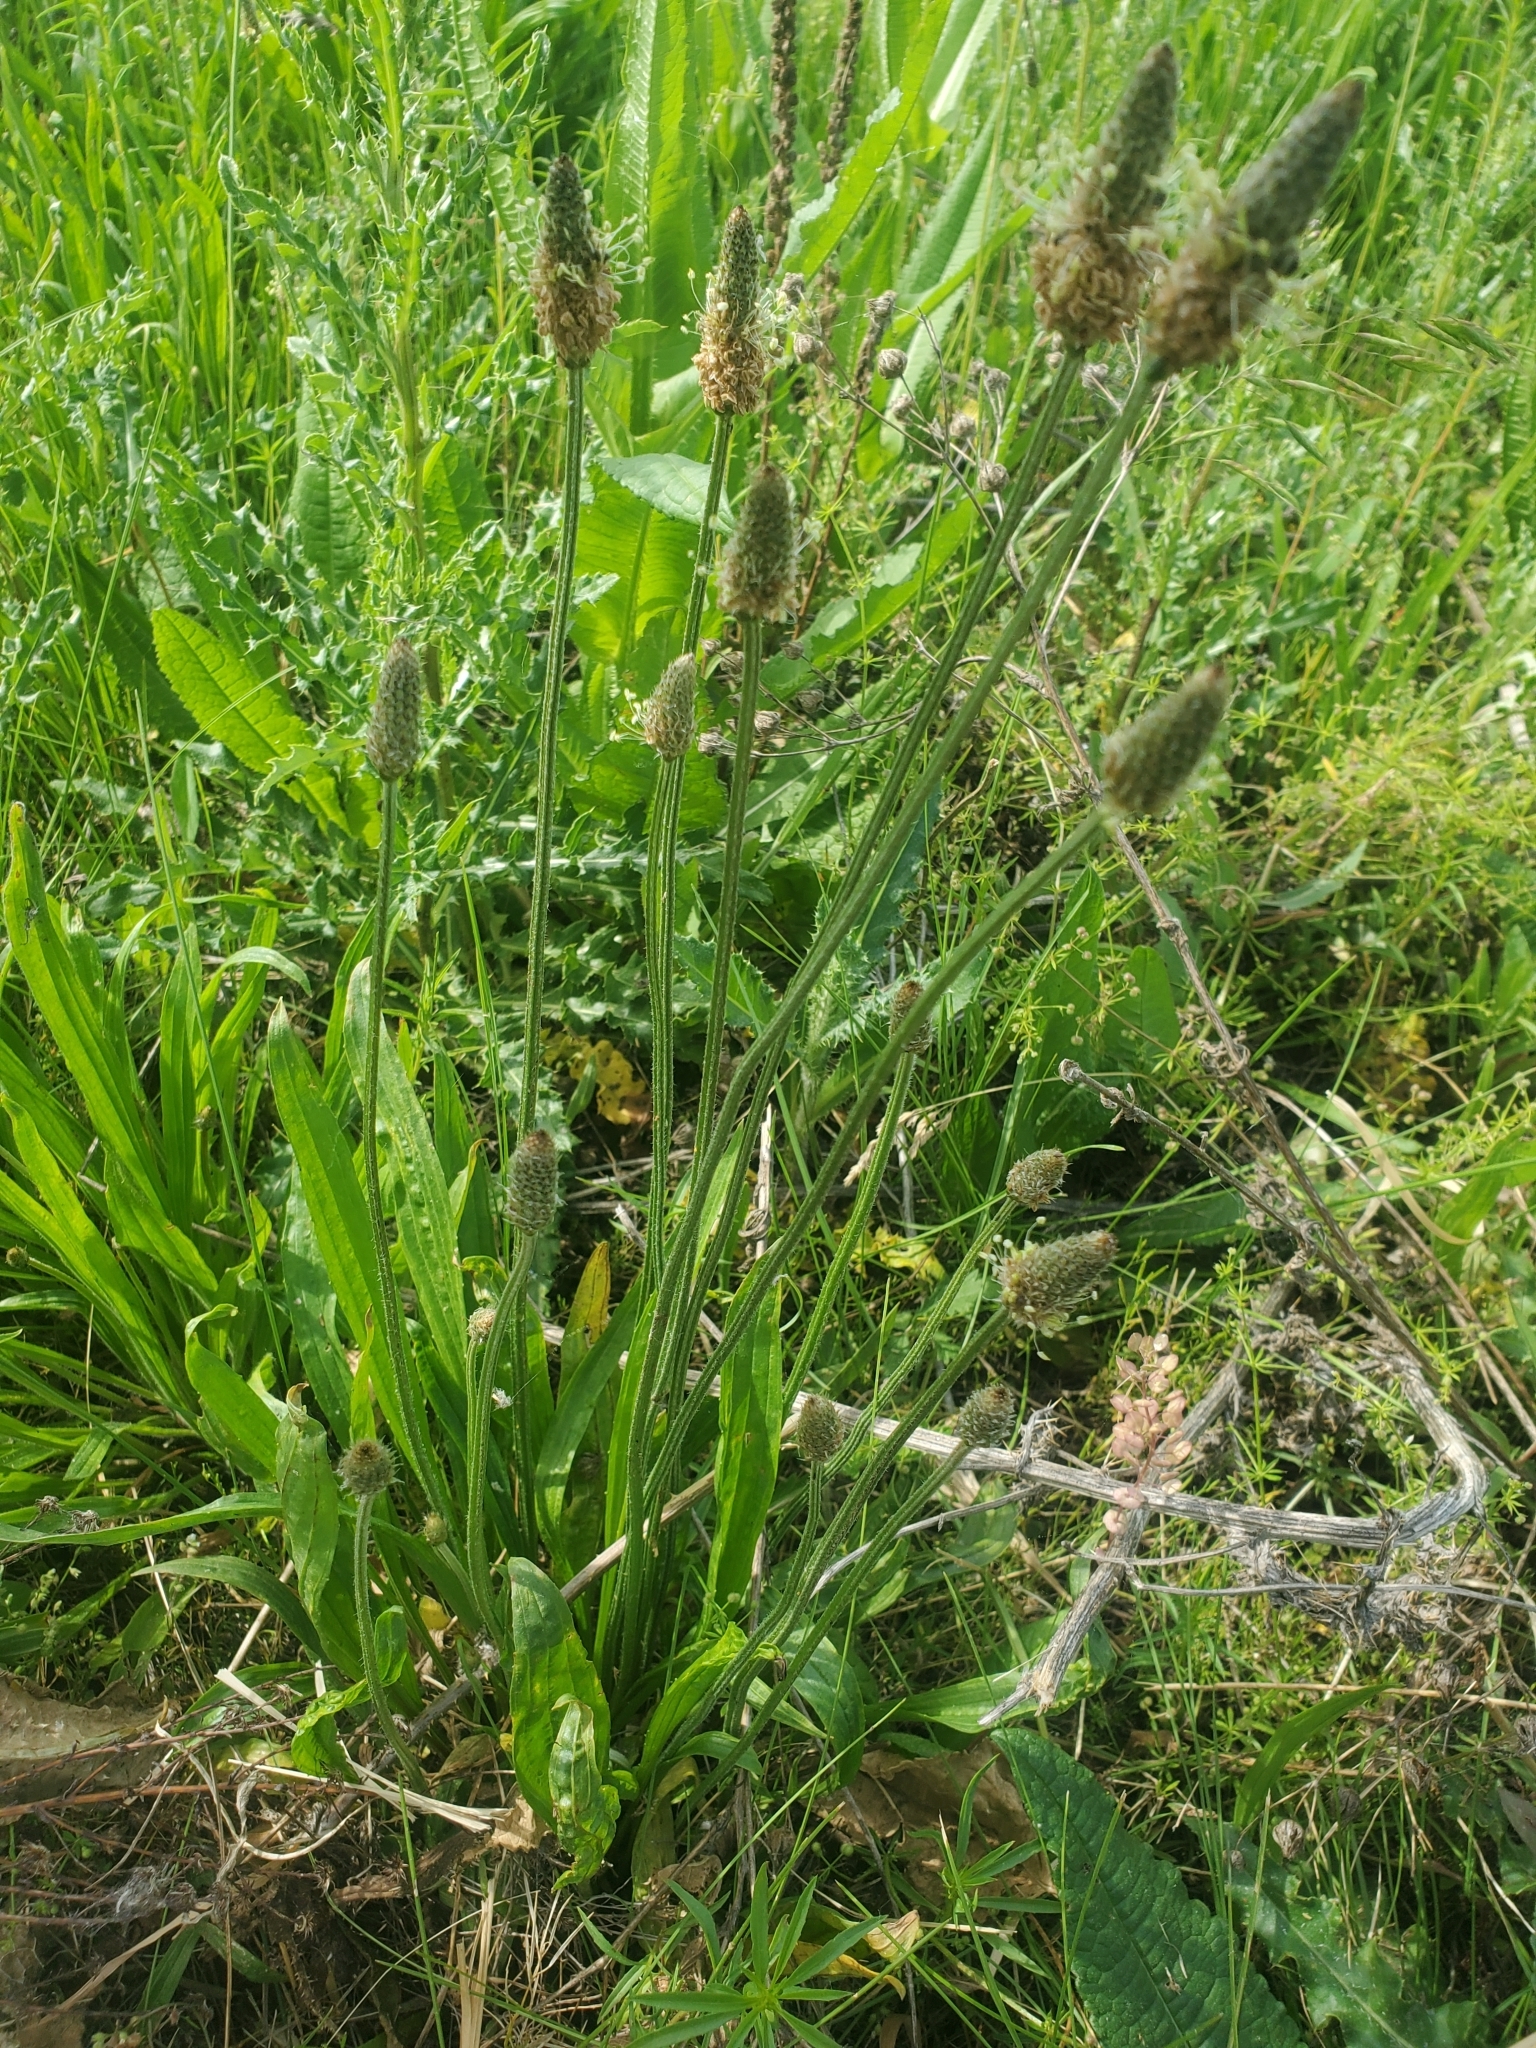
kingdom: Plantae
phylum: Tracheophyta
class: Magnoliopsida
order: Lamiales
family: Plantaginaceae
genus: Plantago
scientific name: Plantago lanceolata
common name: Ribwort plantain
